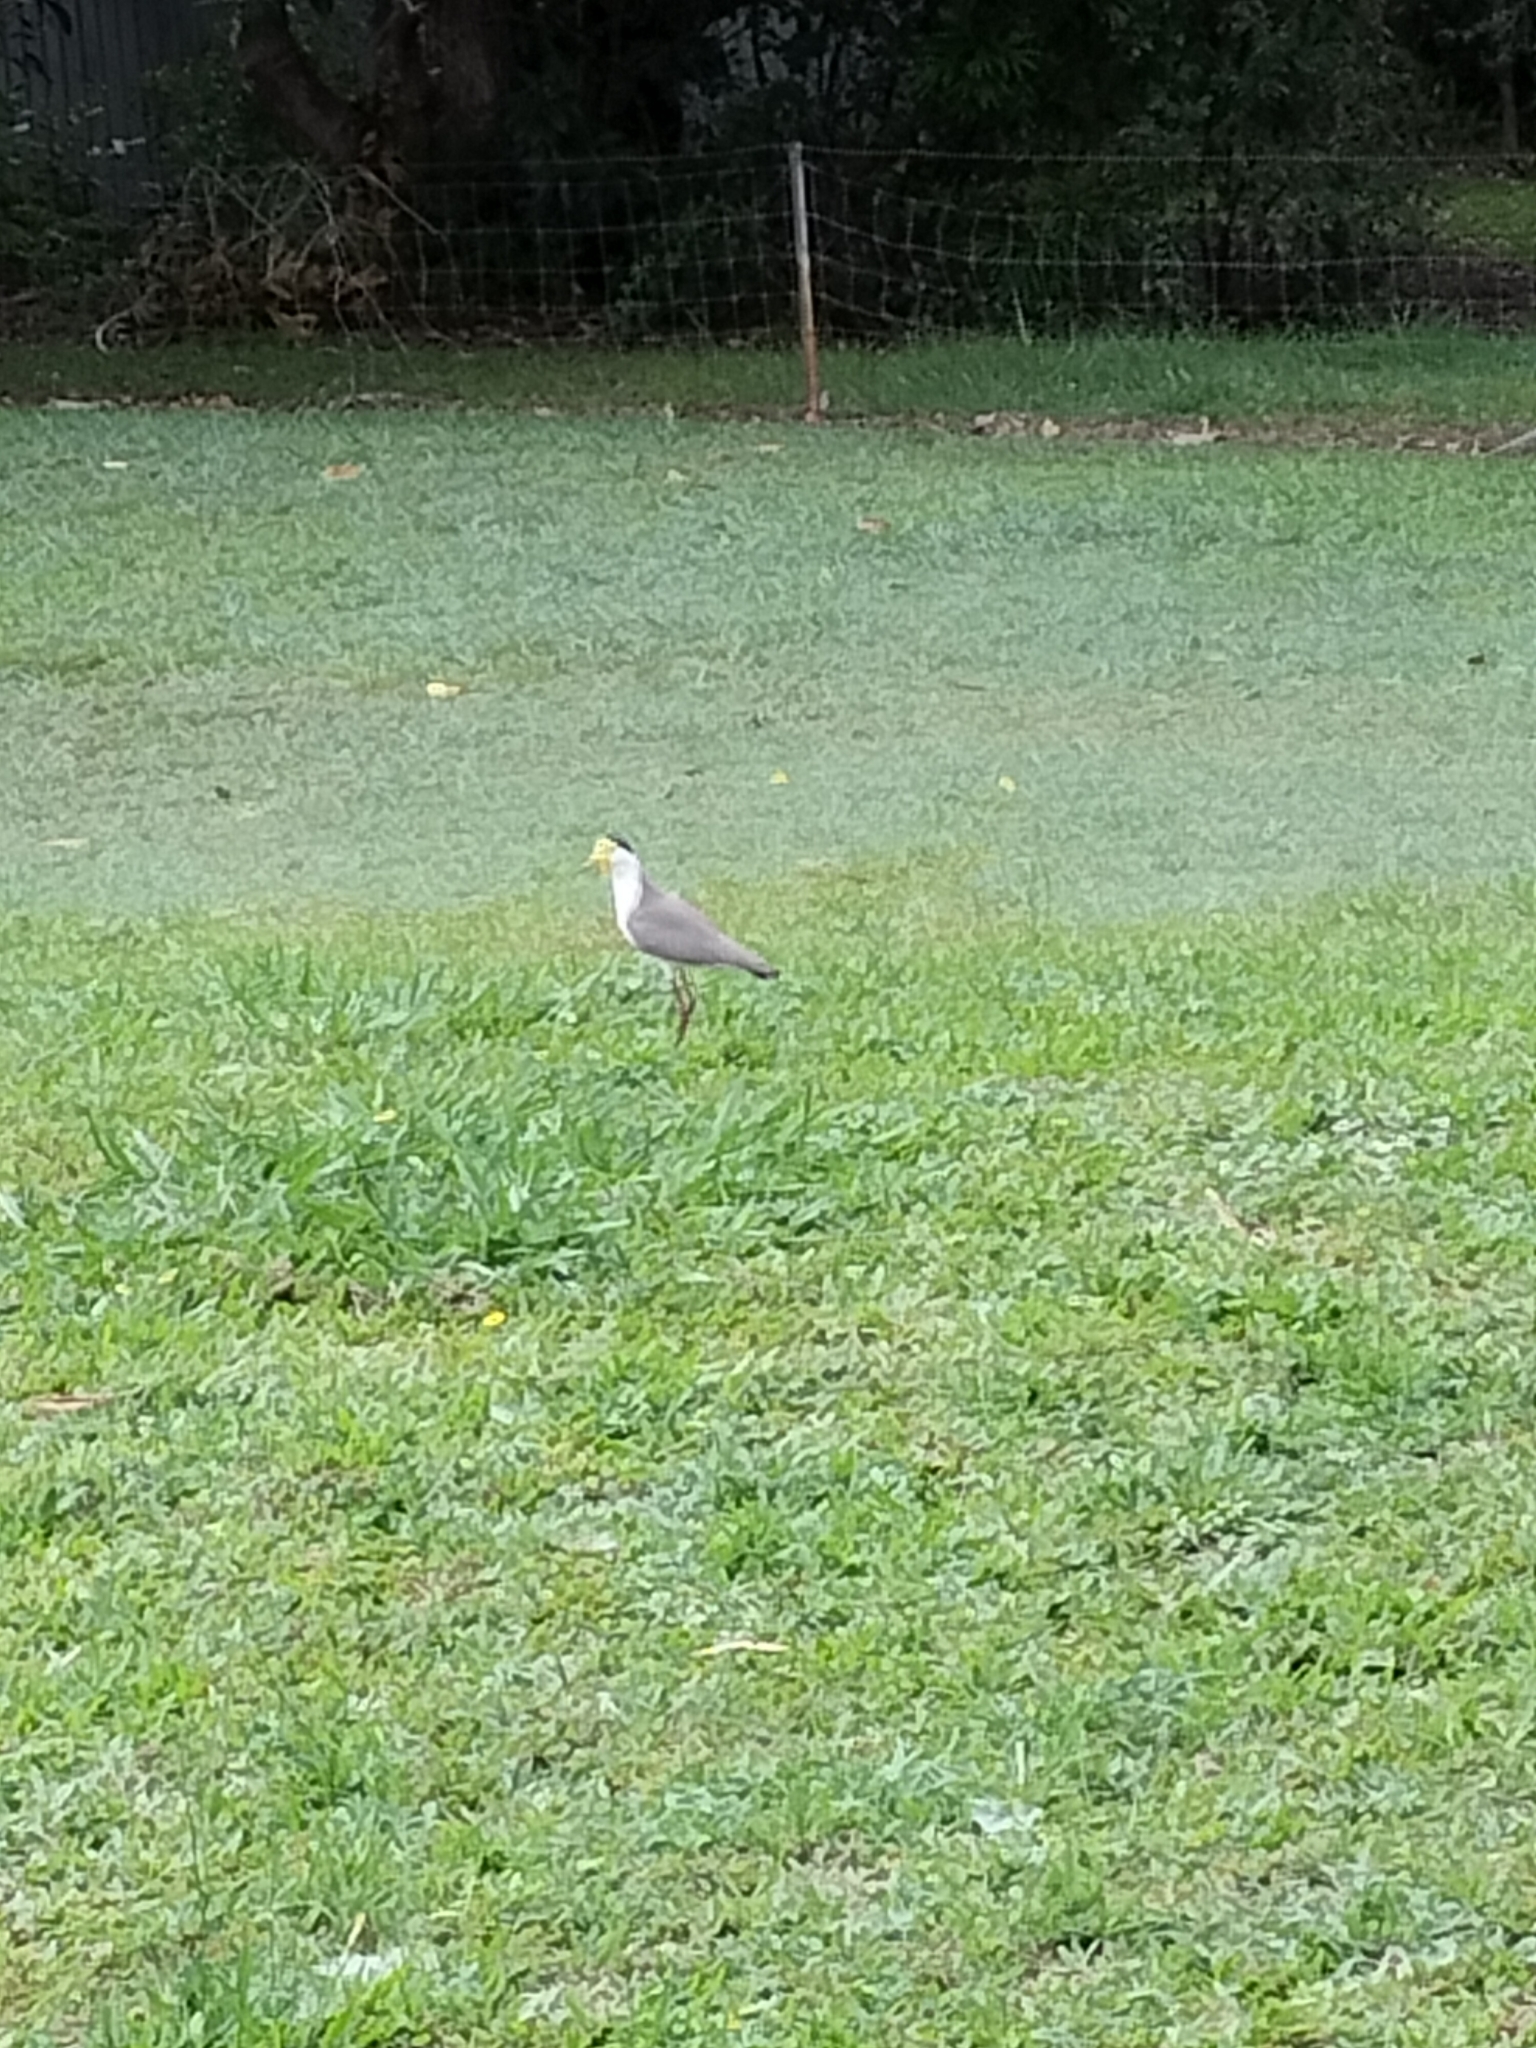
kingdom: Animalia
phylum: Chordata
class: Aves
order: Charadriiformes
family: Charadriidae
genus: Vanellus
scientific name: Vanellus miles
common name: Masked lapwing
